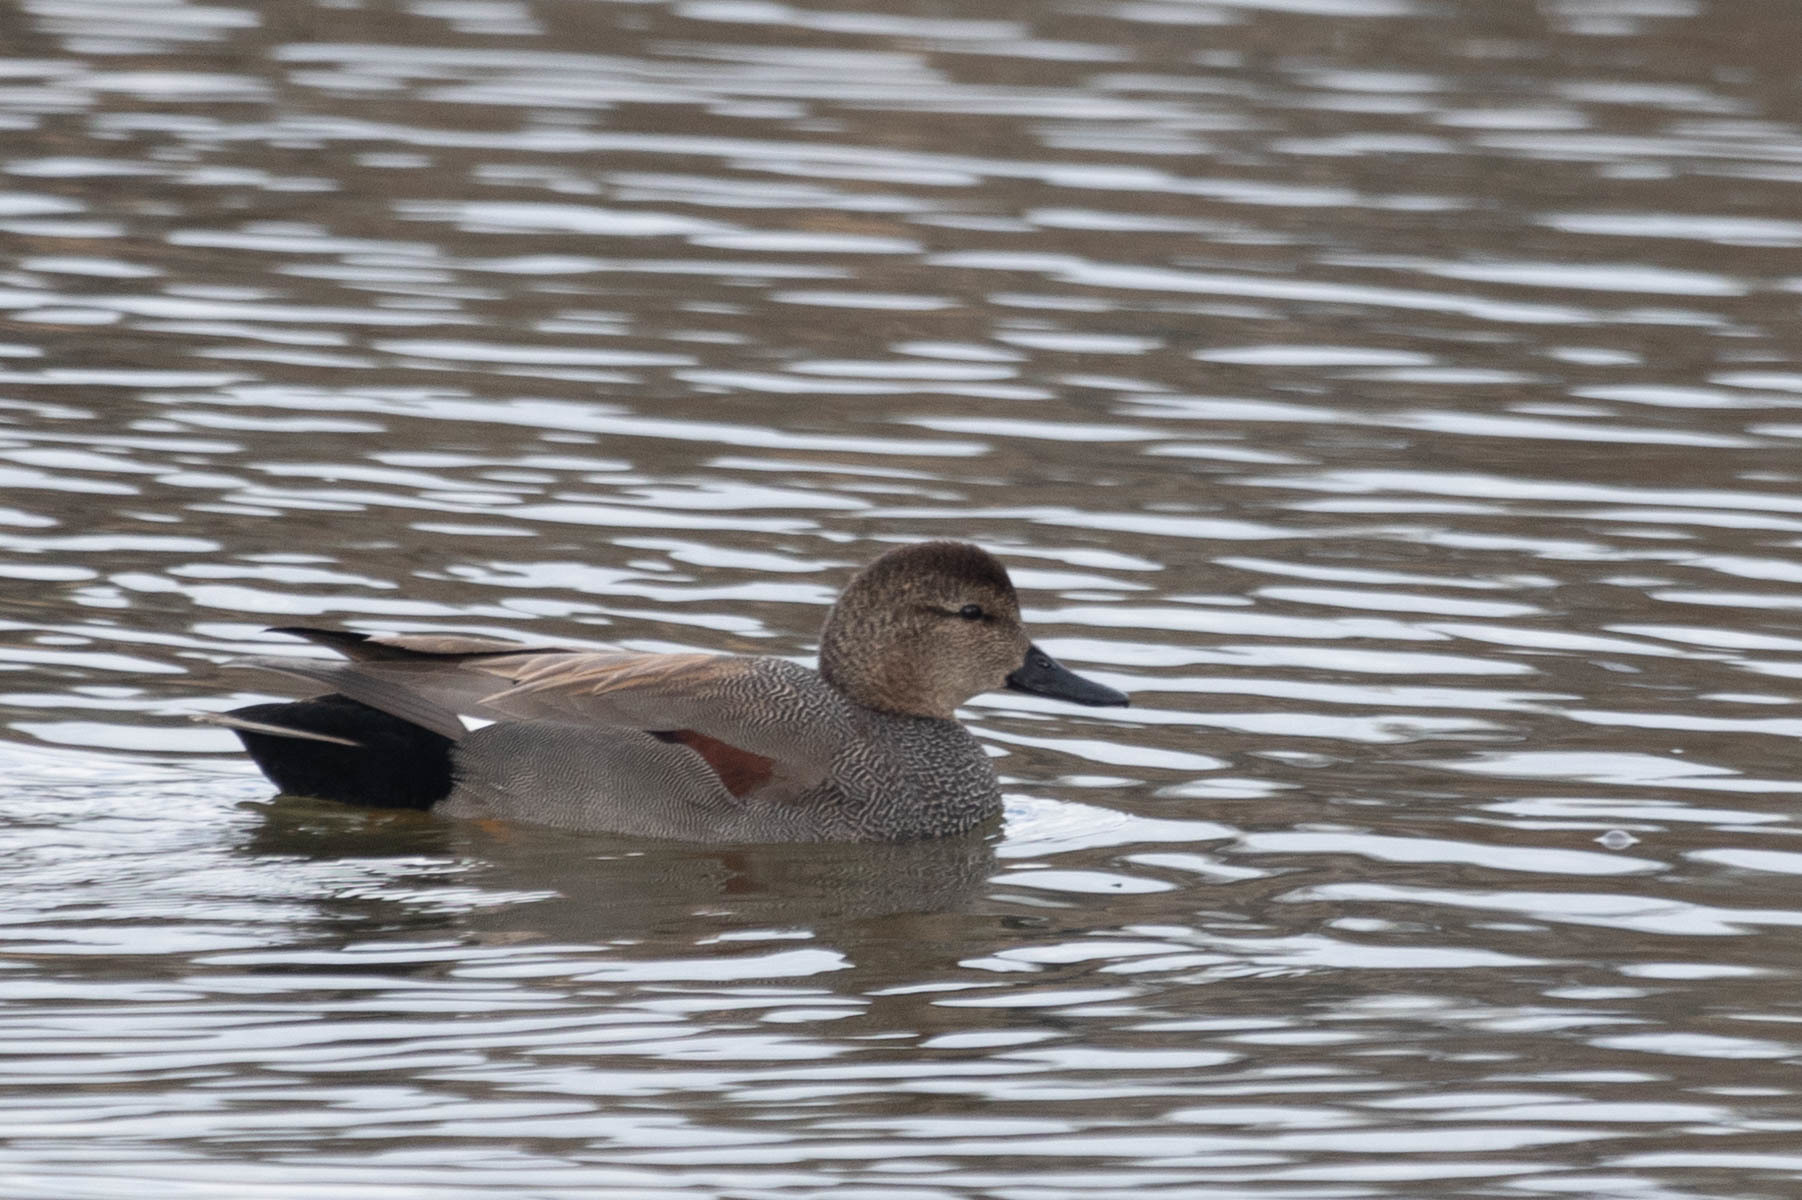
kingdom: Animalia
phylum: Chordata
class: Aves
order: Anseriformes
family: Anatidae
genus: Mareca
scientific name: Mareca strepera
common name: Gadwall
